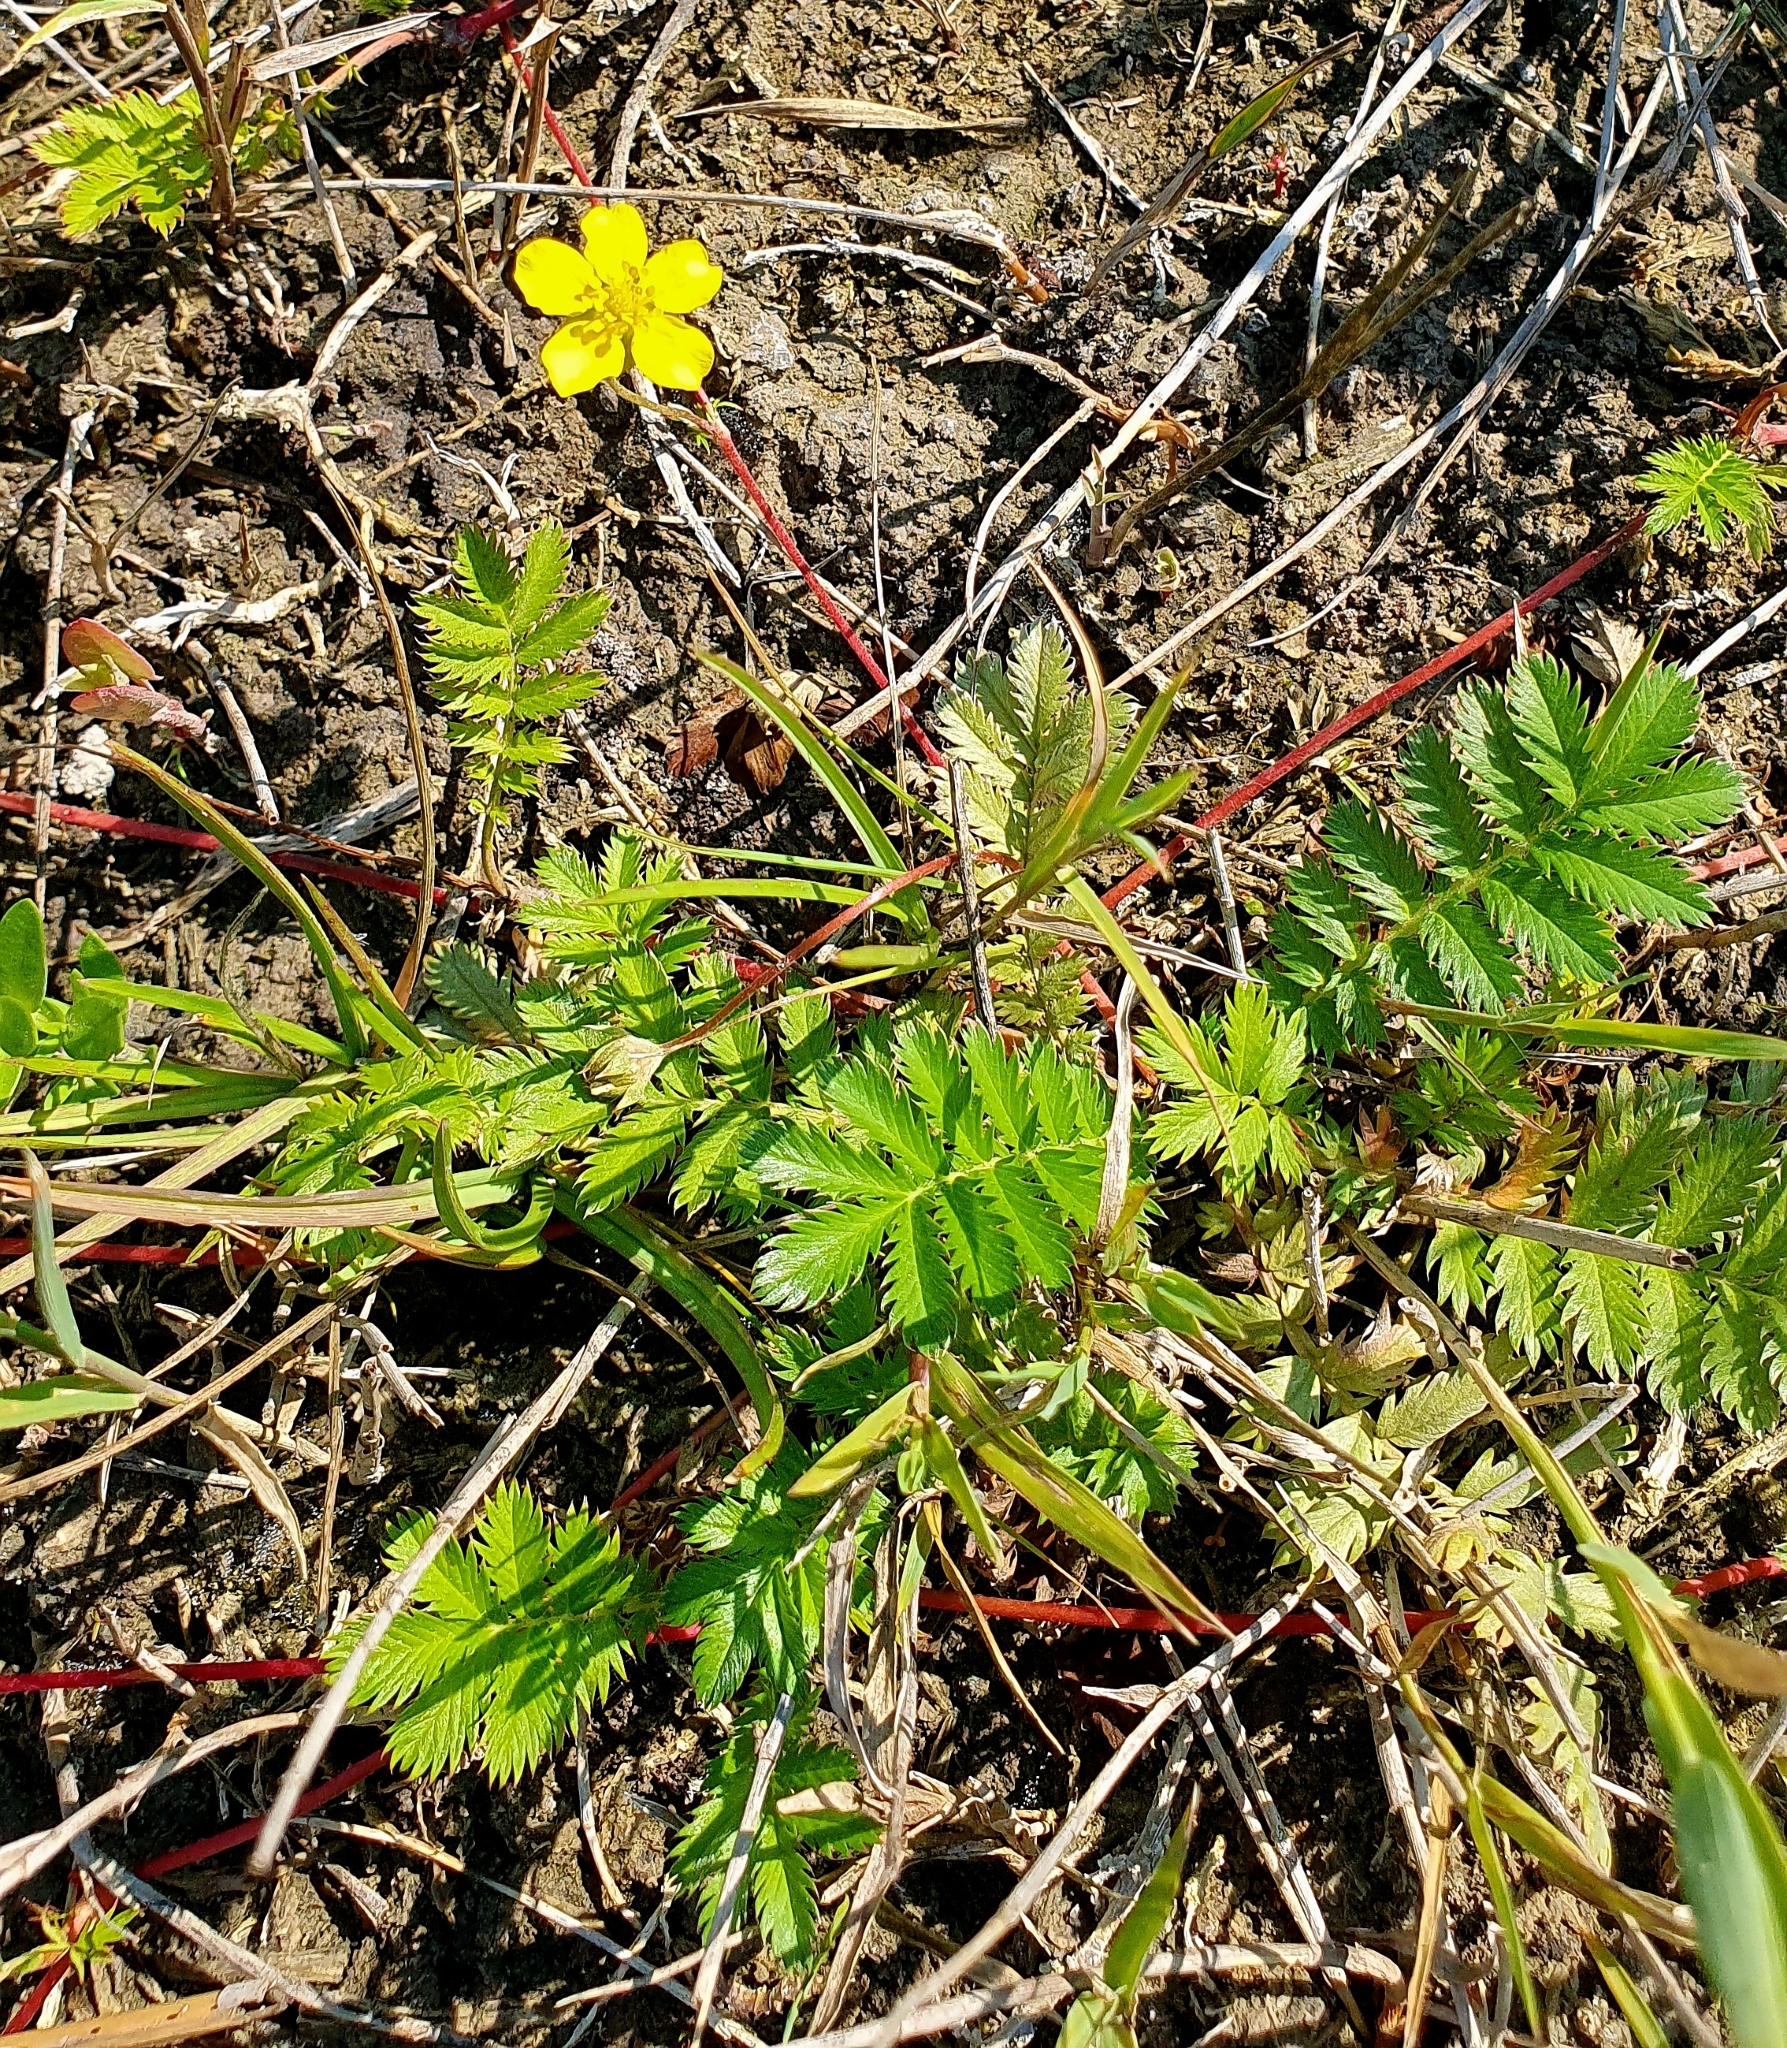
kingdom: Plantae
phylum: Tracheophyta
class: Magnoliopsida
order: Rosales
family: Rosaceae
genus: Argentina
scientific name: Argentina anserina
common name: Common silverweed
